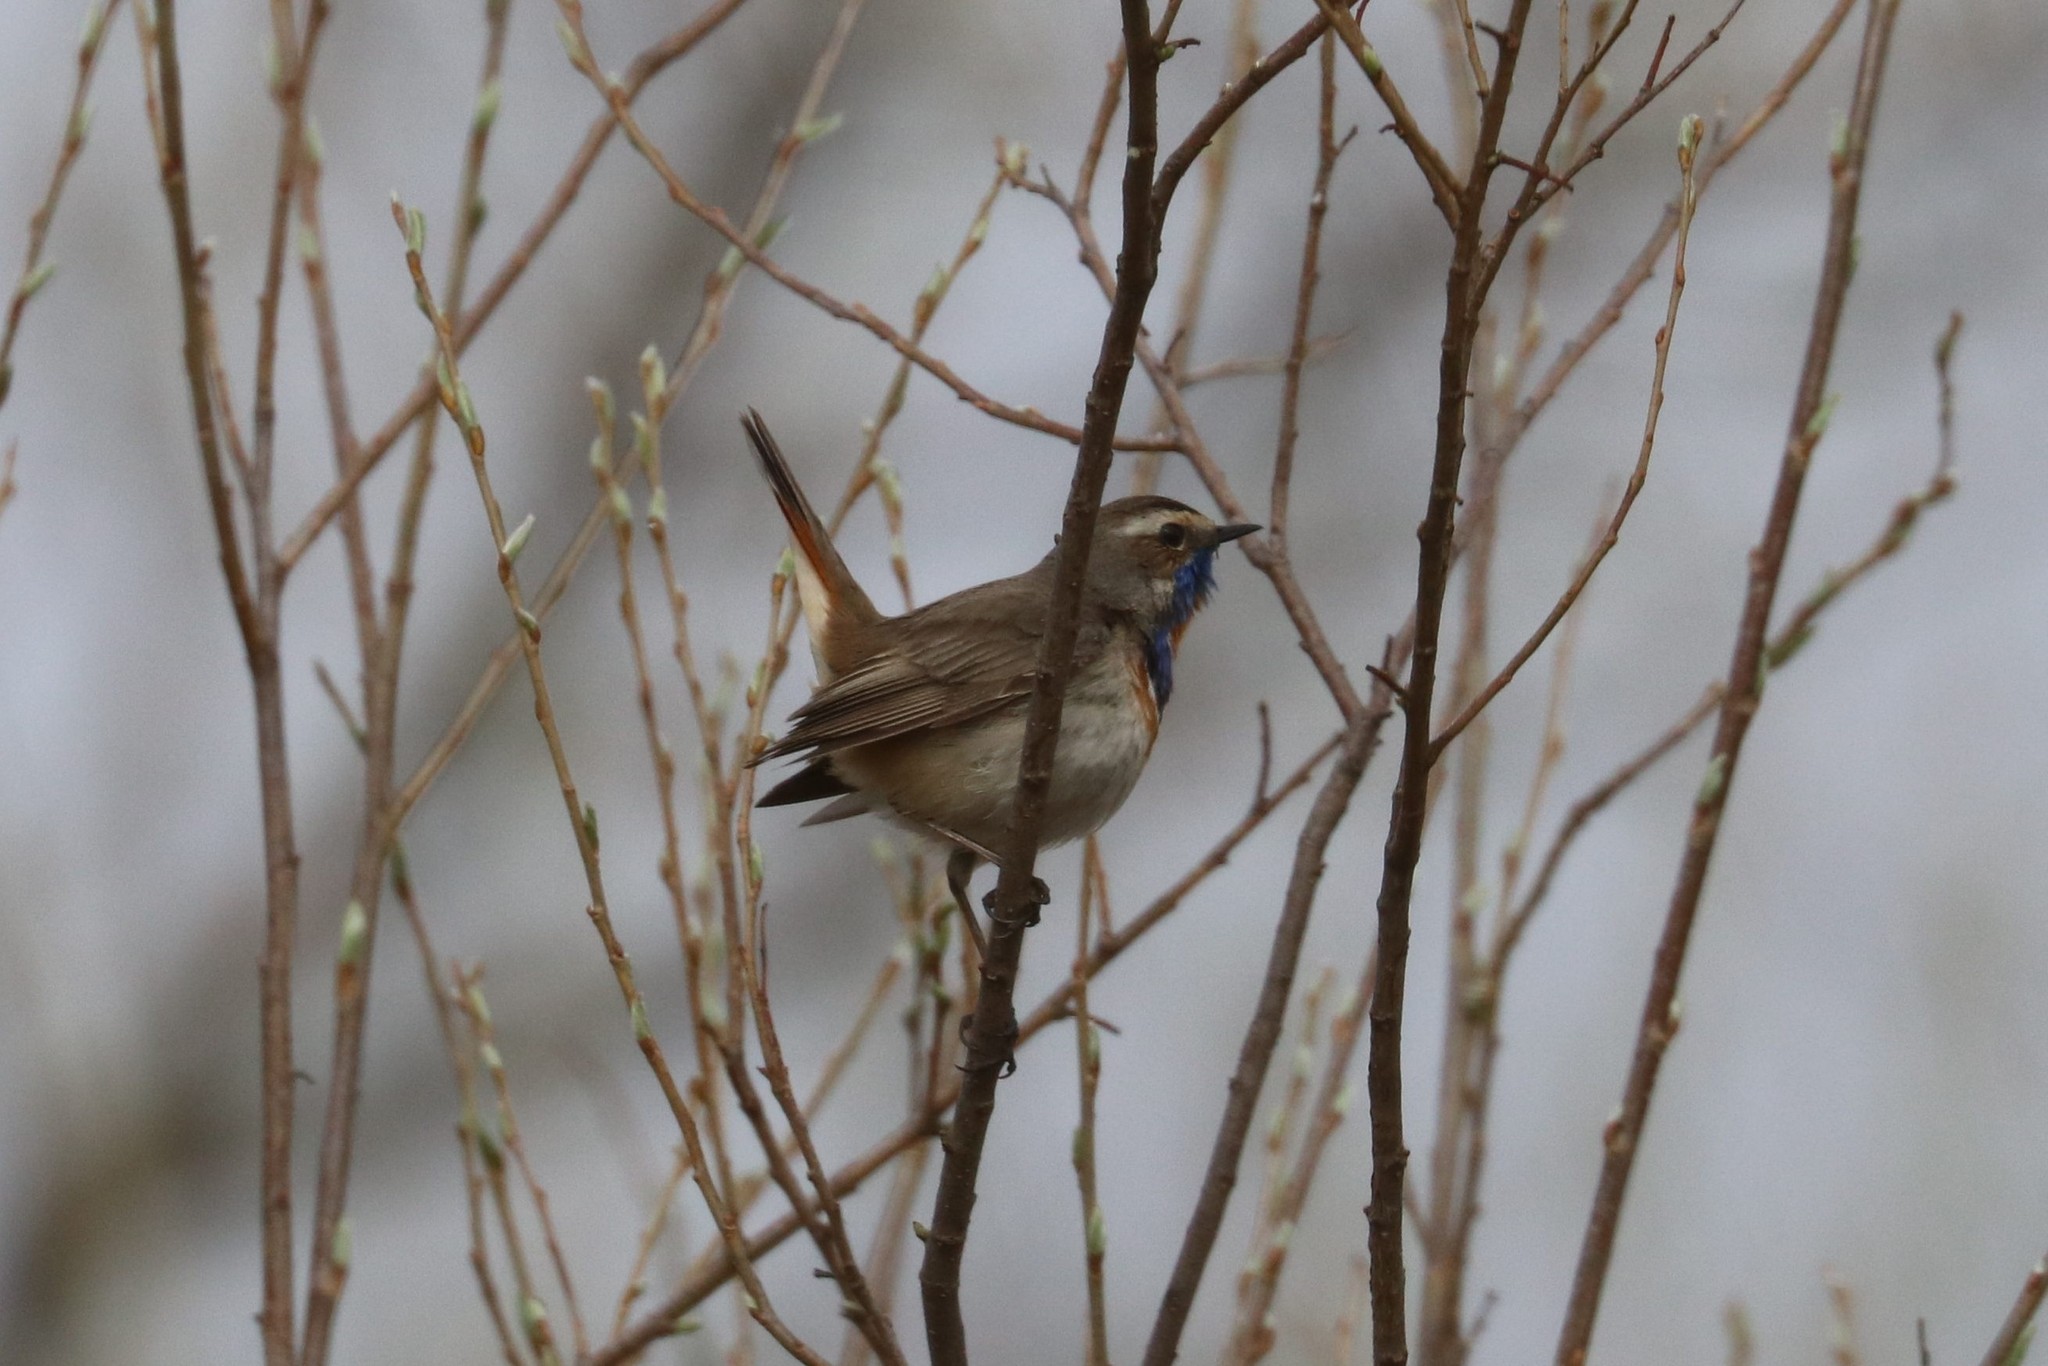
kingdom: Animalia
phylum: Chordata
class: Aves
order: Passeriformes
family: Muscicapidae
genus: Luscinia
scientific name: Luscinia svecica
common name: Bluethroat
